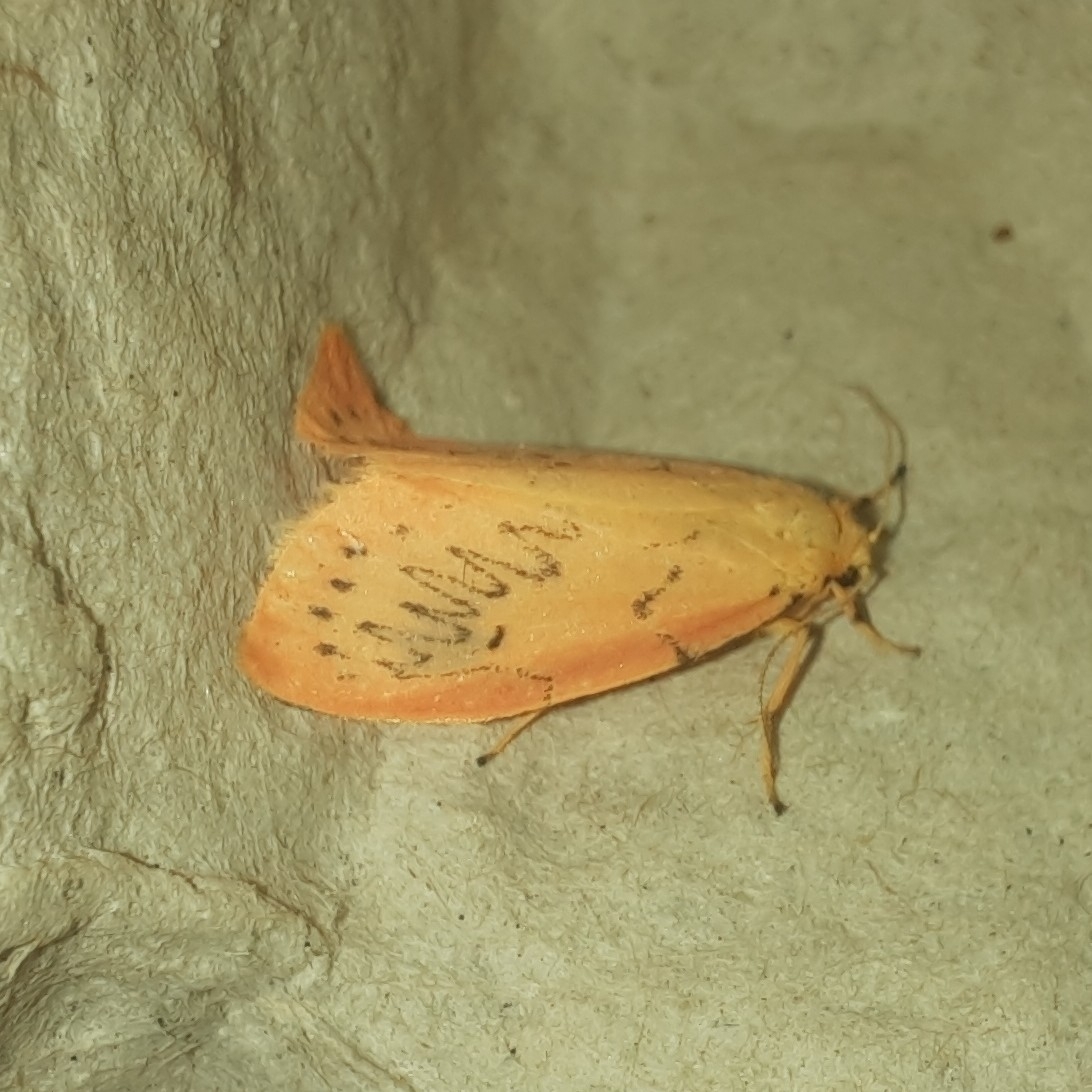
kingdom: Animalia
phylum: Arthropoda
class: Insecta
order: Lepidoptera
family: Erebidae
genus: Miltochrista
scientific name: Miltochrista miniata
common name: Rosy footman
